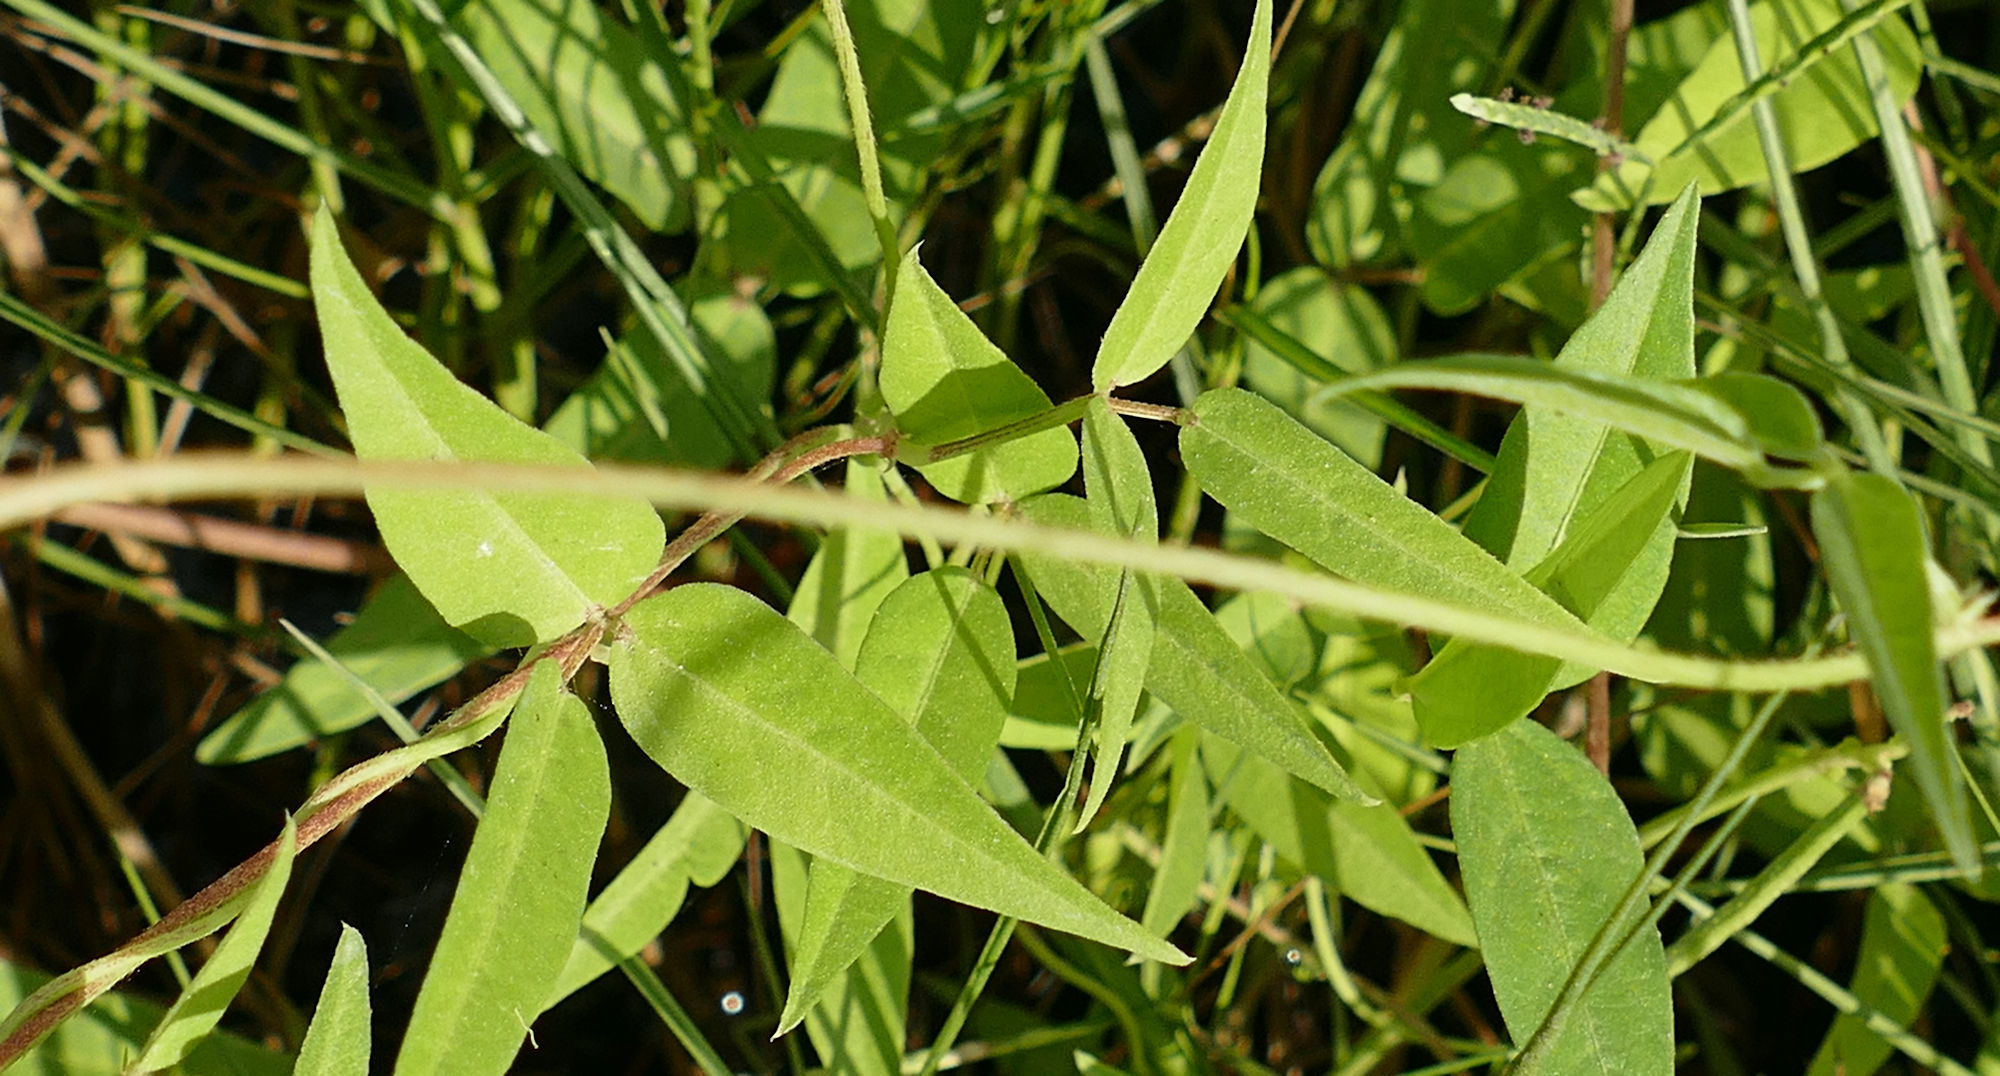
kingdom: Plantae
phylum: Tracheophyta
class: Magnoliopsida
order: Fabales
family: Fabaceae
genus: Vigna
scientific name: Vigna luteola
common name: Hairypod cowpea
